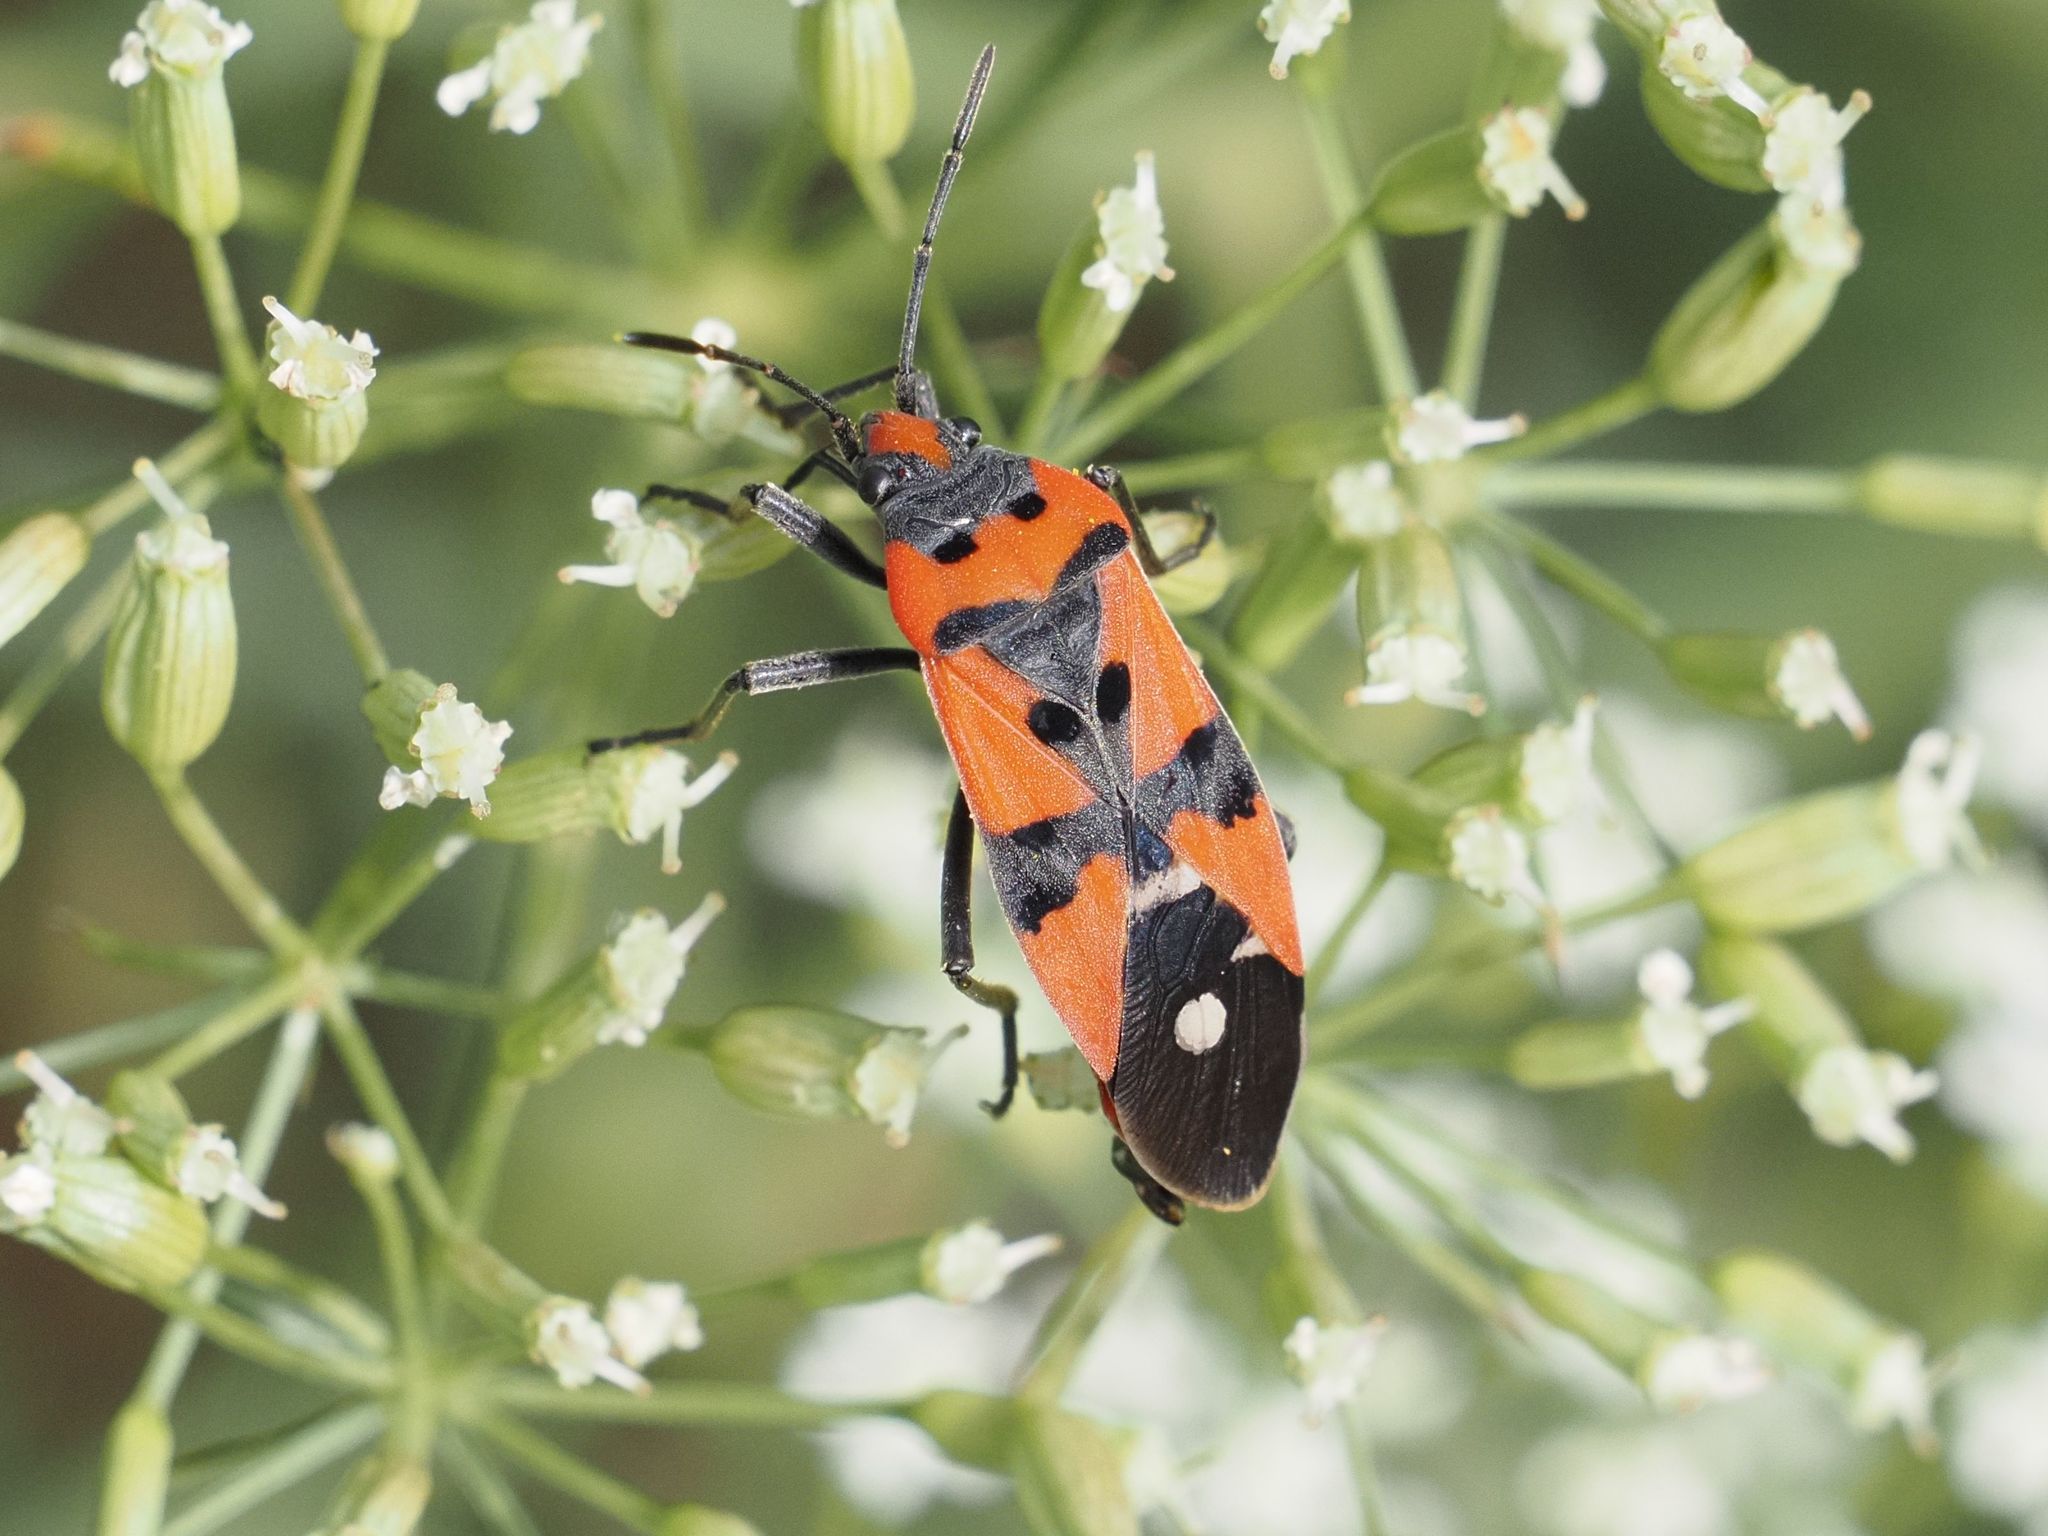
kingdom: Animalia
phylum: Arthropoda
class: Insecta
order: Hemiptera
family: Lygaeidae
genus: Lygaeus
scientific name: Lygaeus equestris
